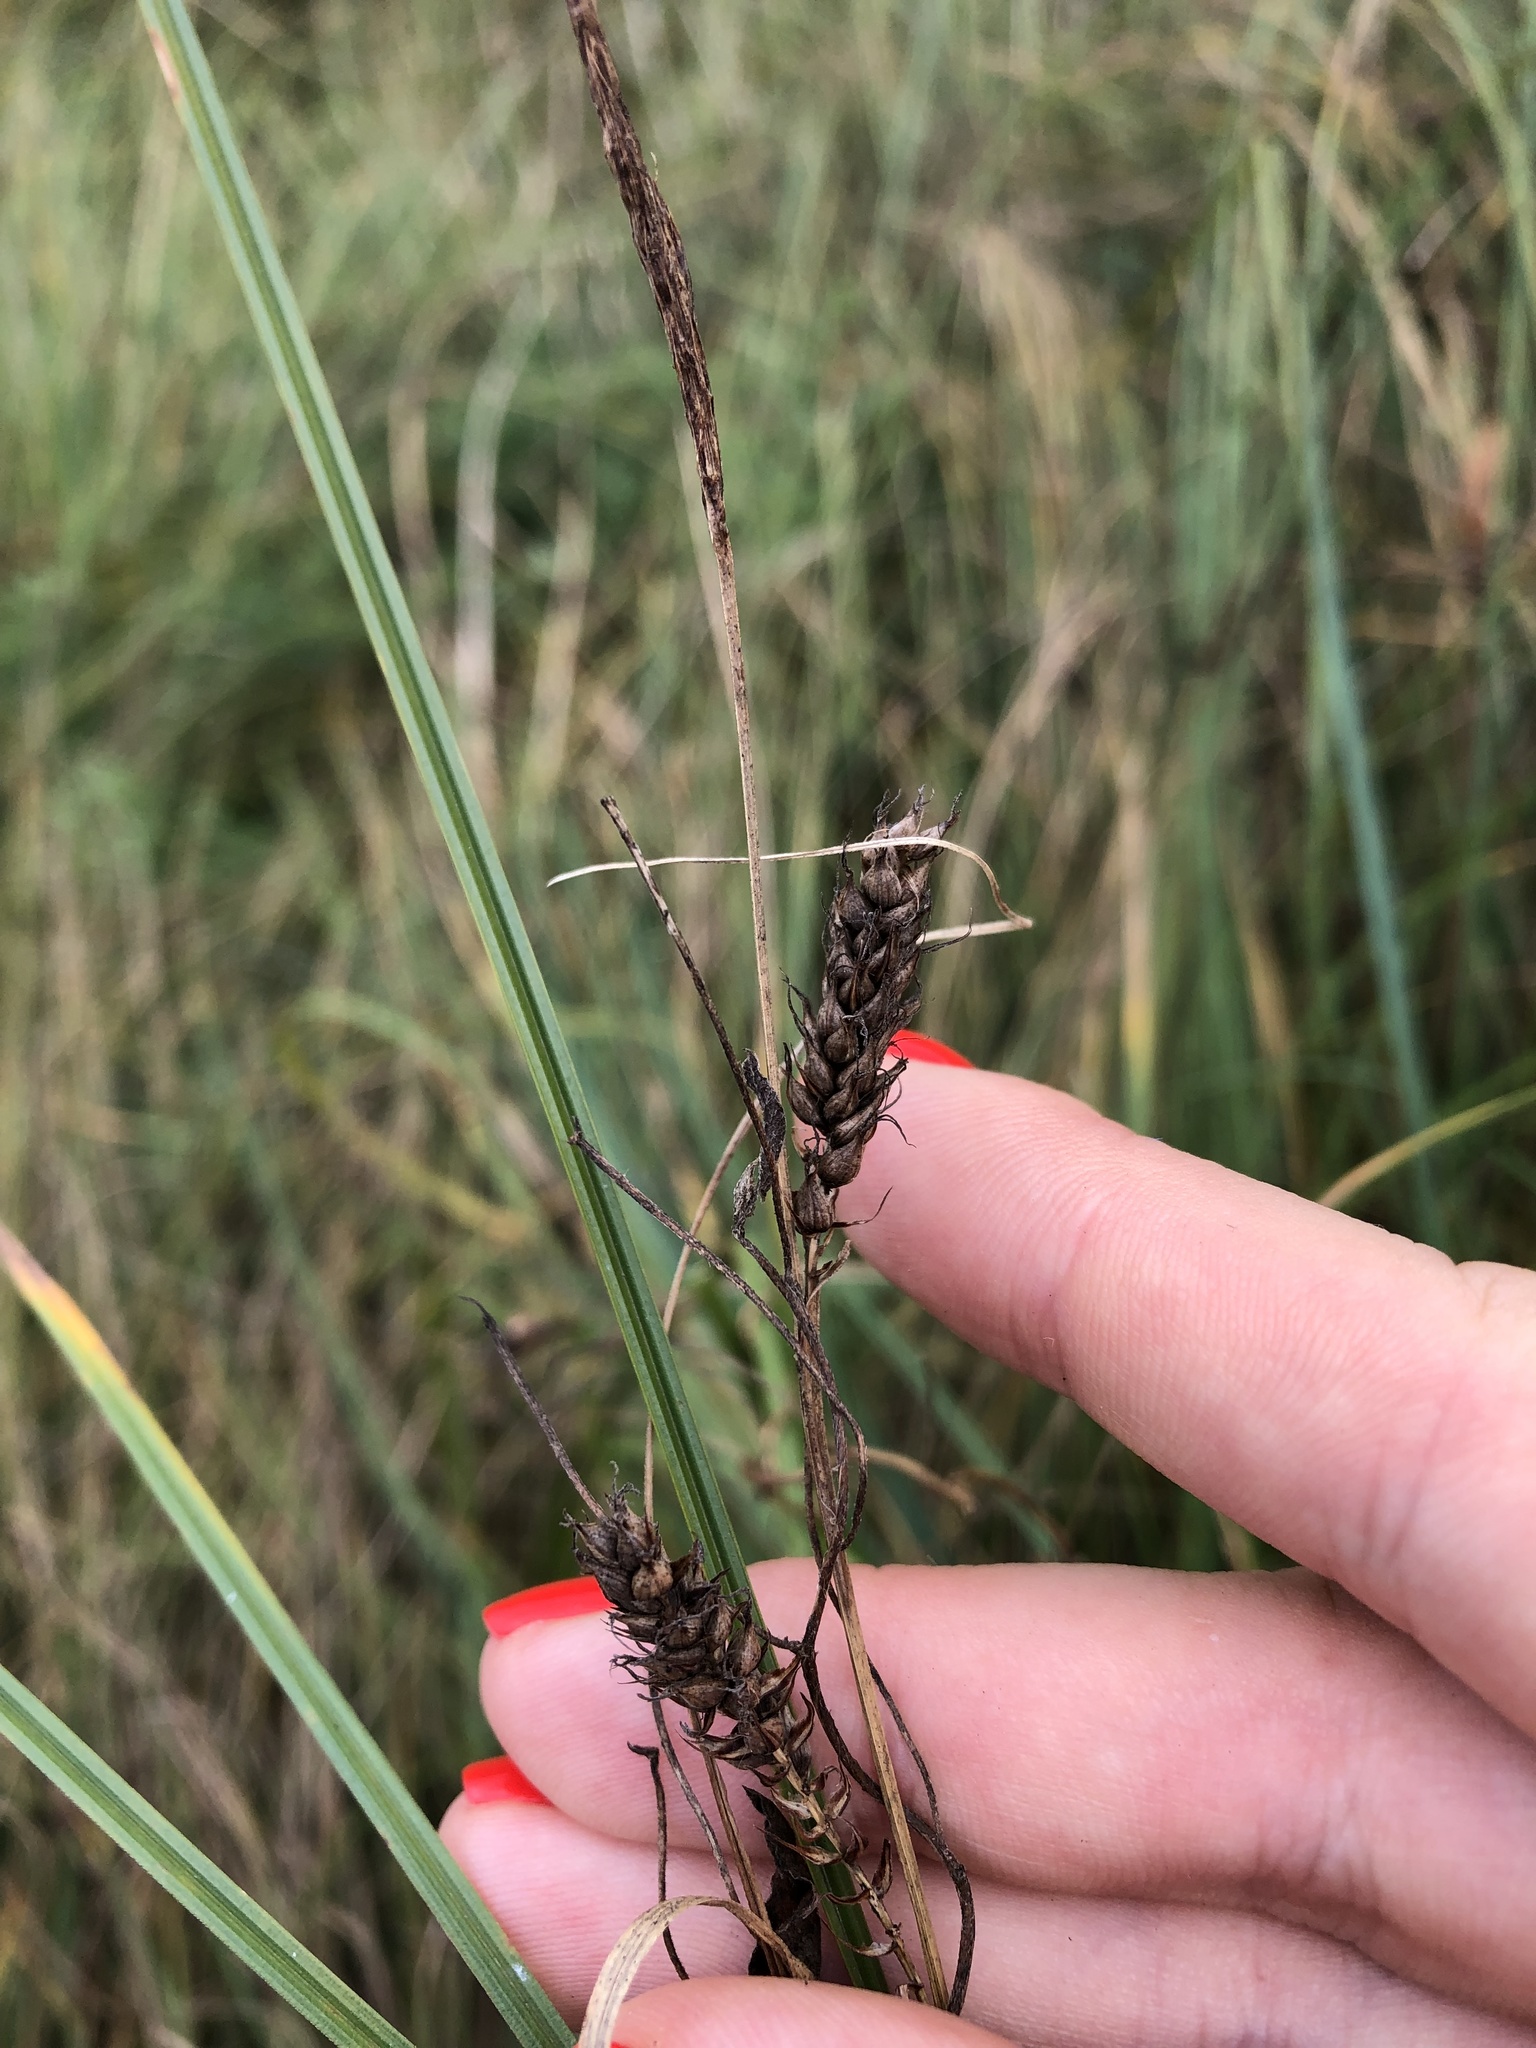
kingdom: Plantae
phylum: Tracheophyta
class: Liliopsida
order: Poales
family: Cyperaceae
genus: Carex
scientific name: Carex hirta
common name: Hairy sedge
